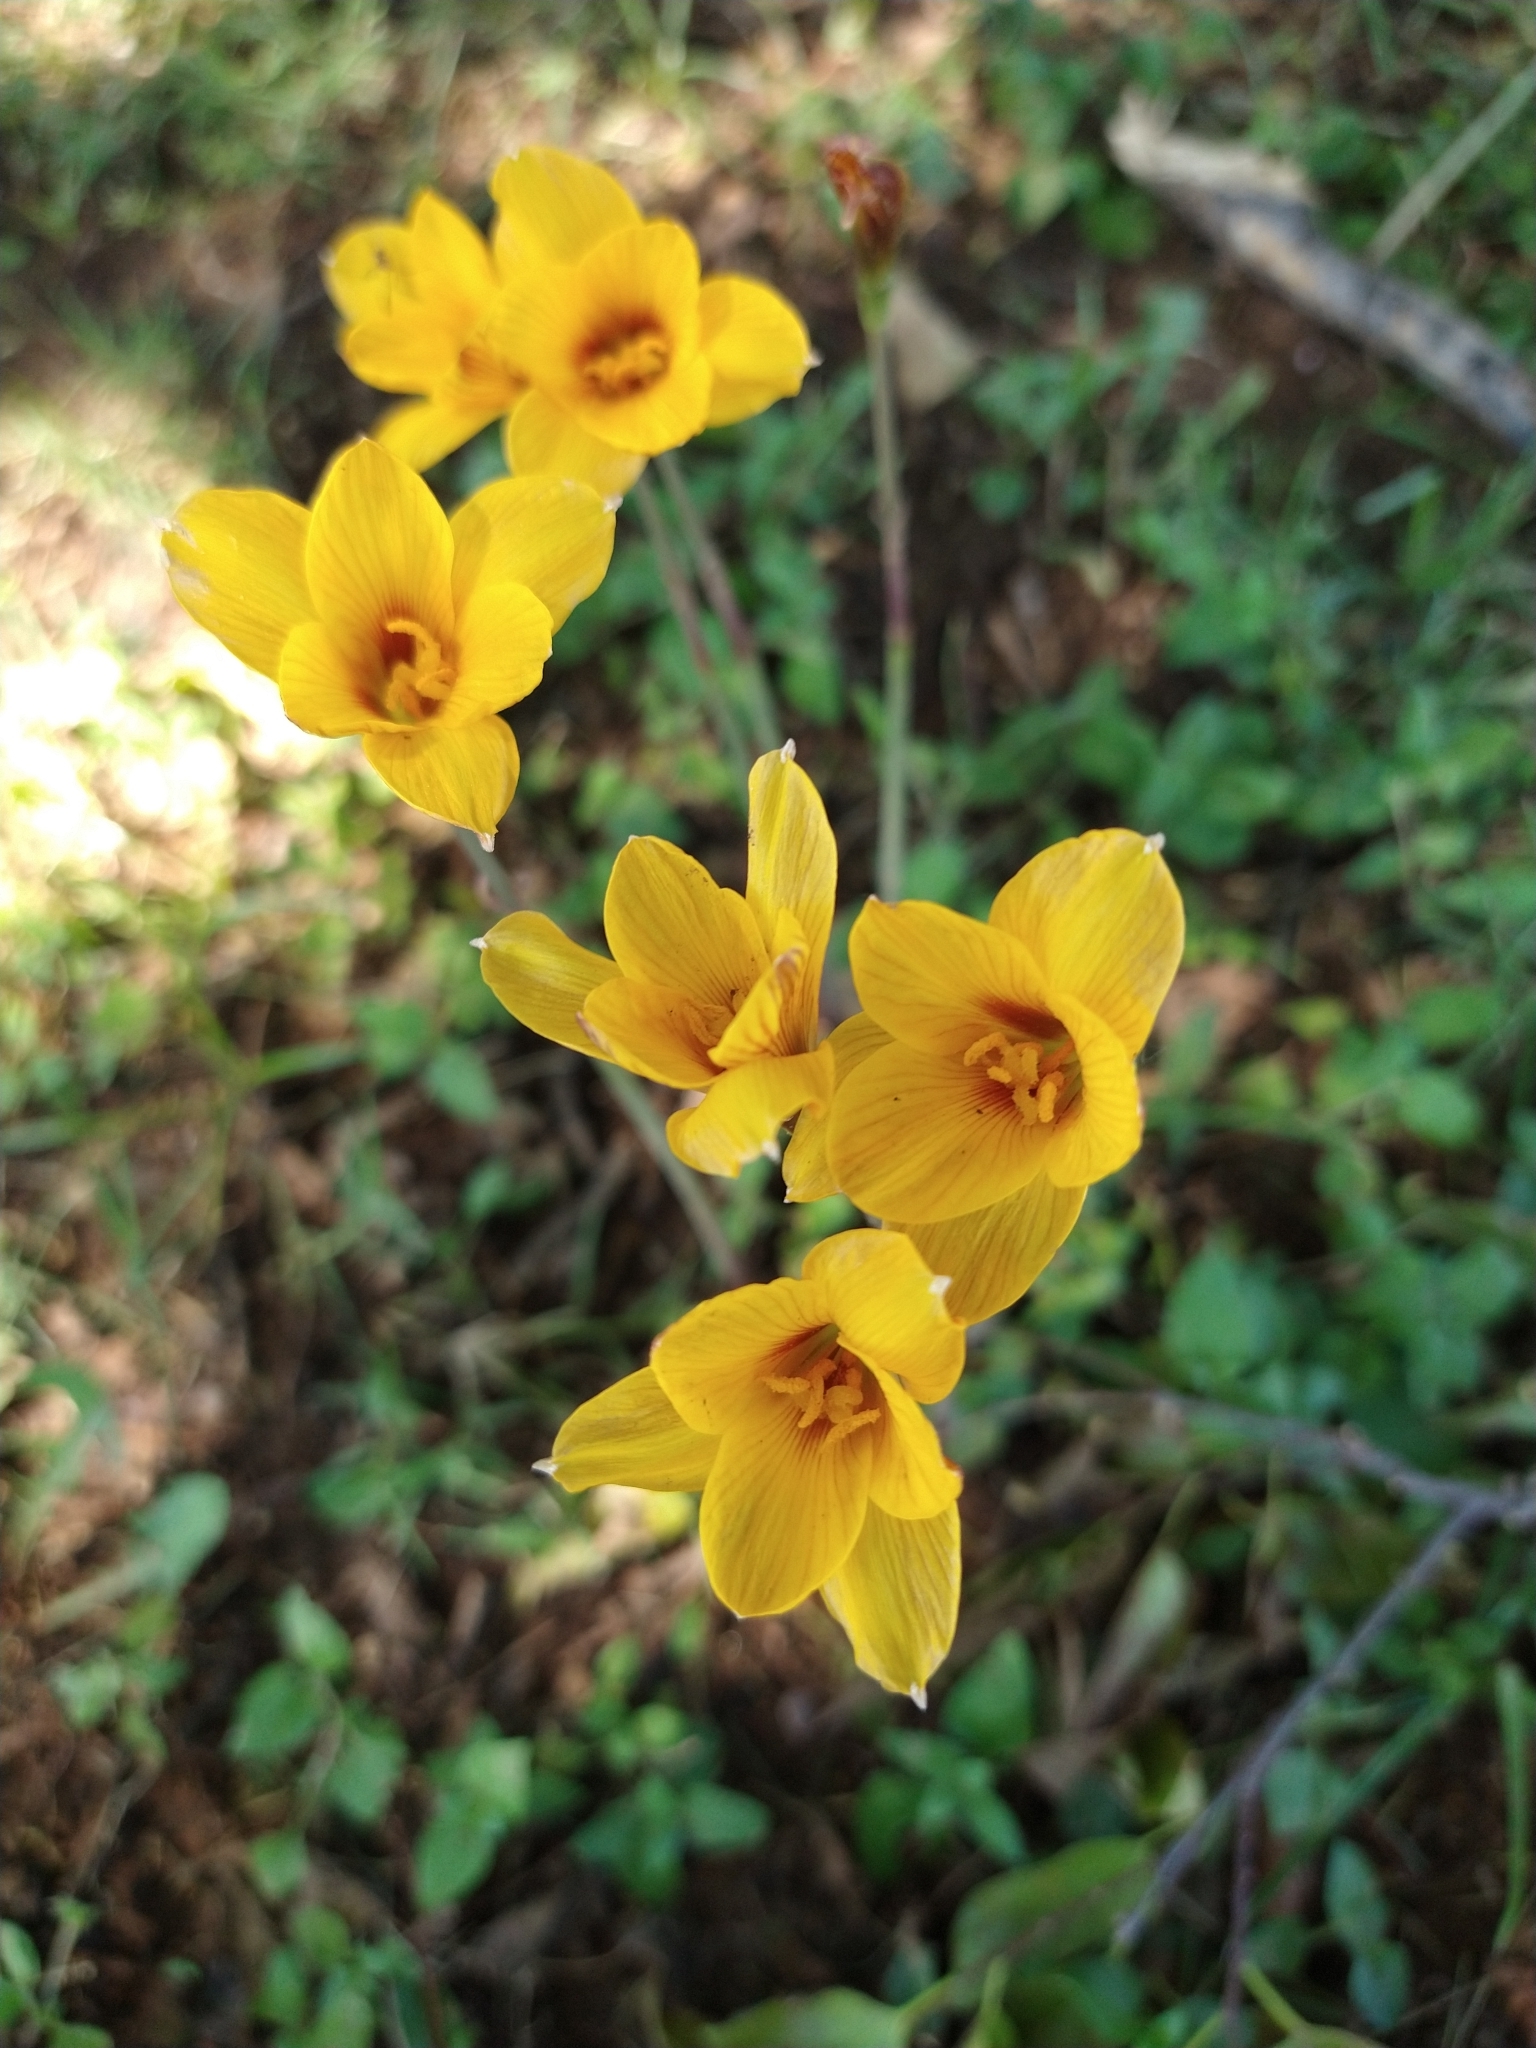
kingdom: Plantae
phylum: Tracheophyta
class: Liliopsida
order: Asparagales
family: Amaryllidaceae
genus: Zephyranthes
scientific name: Zephyranthes tubispatha
